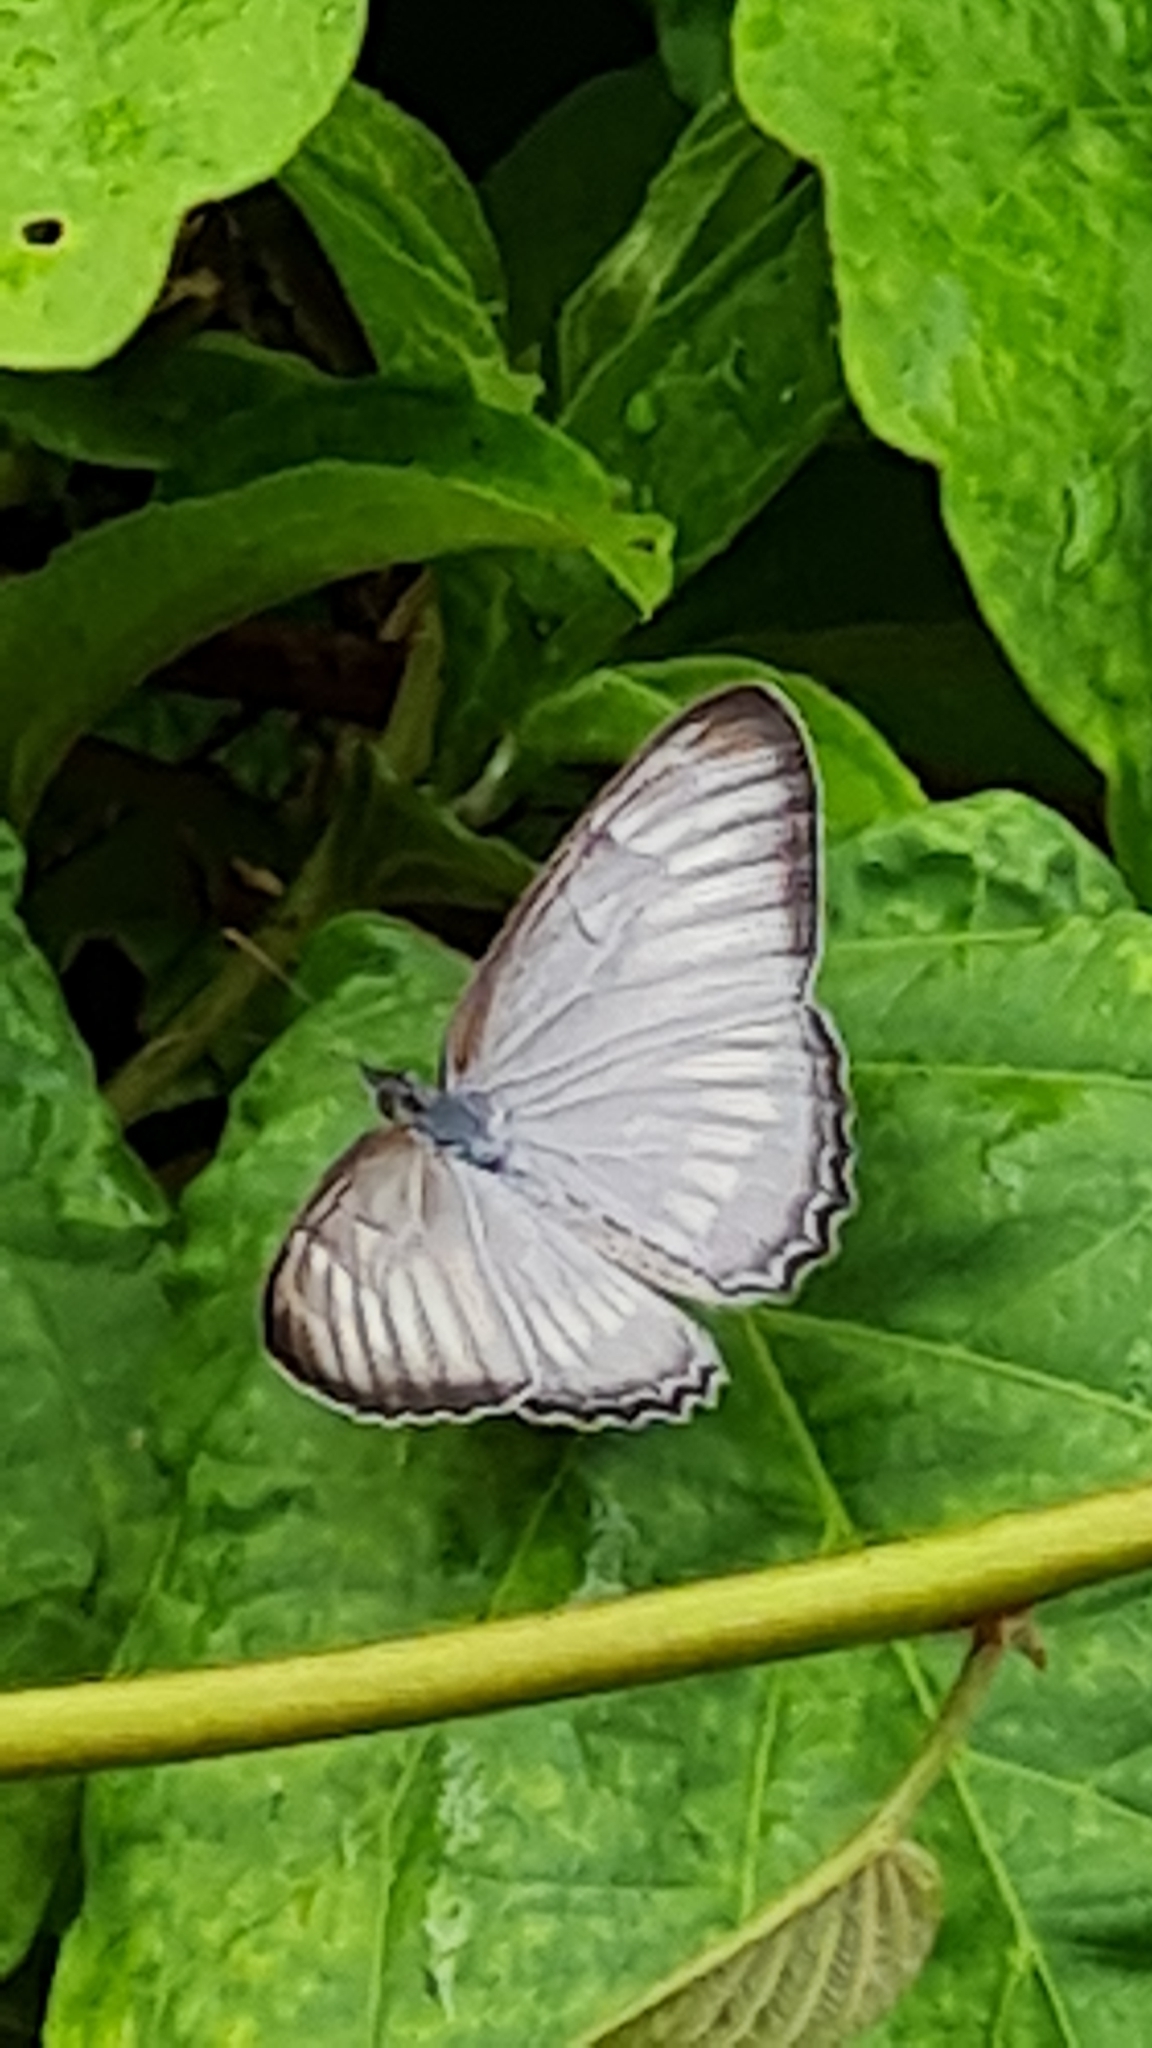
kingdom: Animalia
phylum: Arthropoda
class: Insecta
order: Lepidoptera
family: Nymphalidae
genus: Mestra
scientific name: Mestra hersilia
